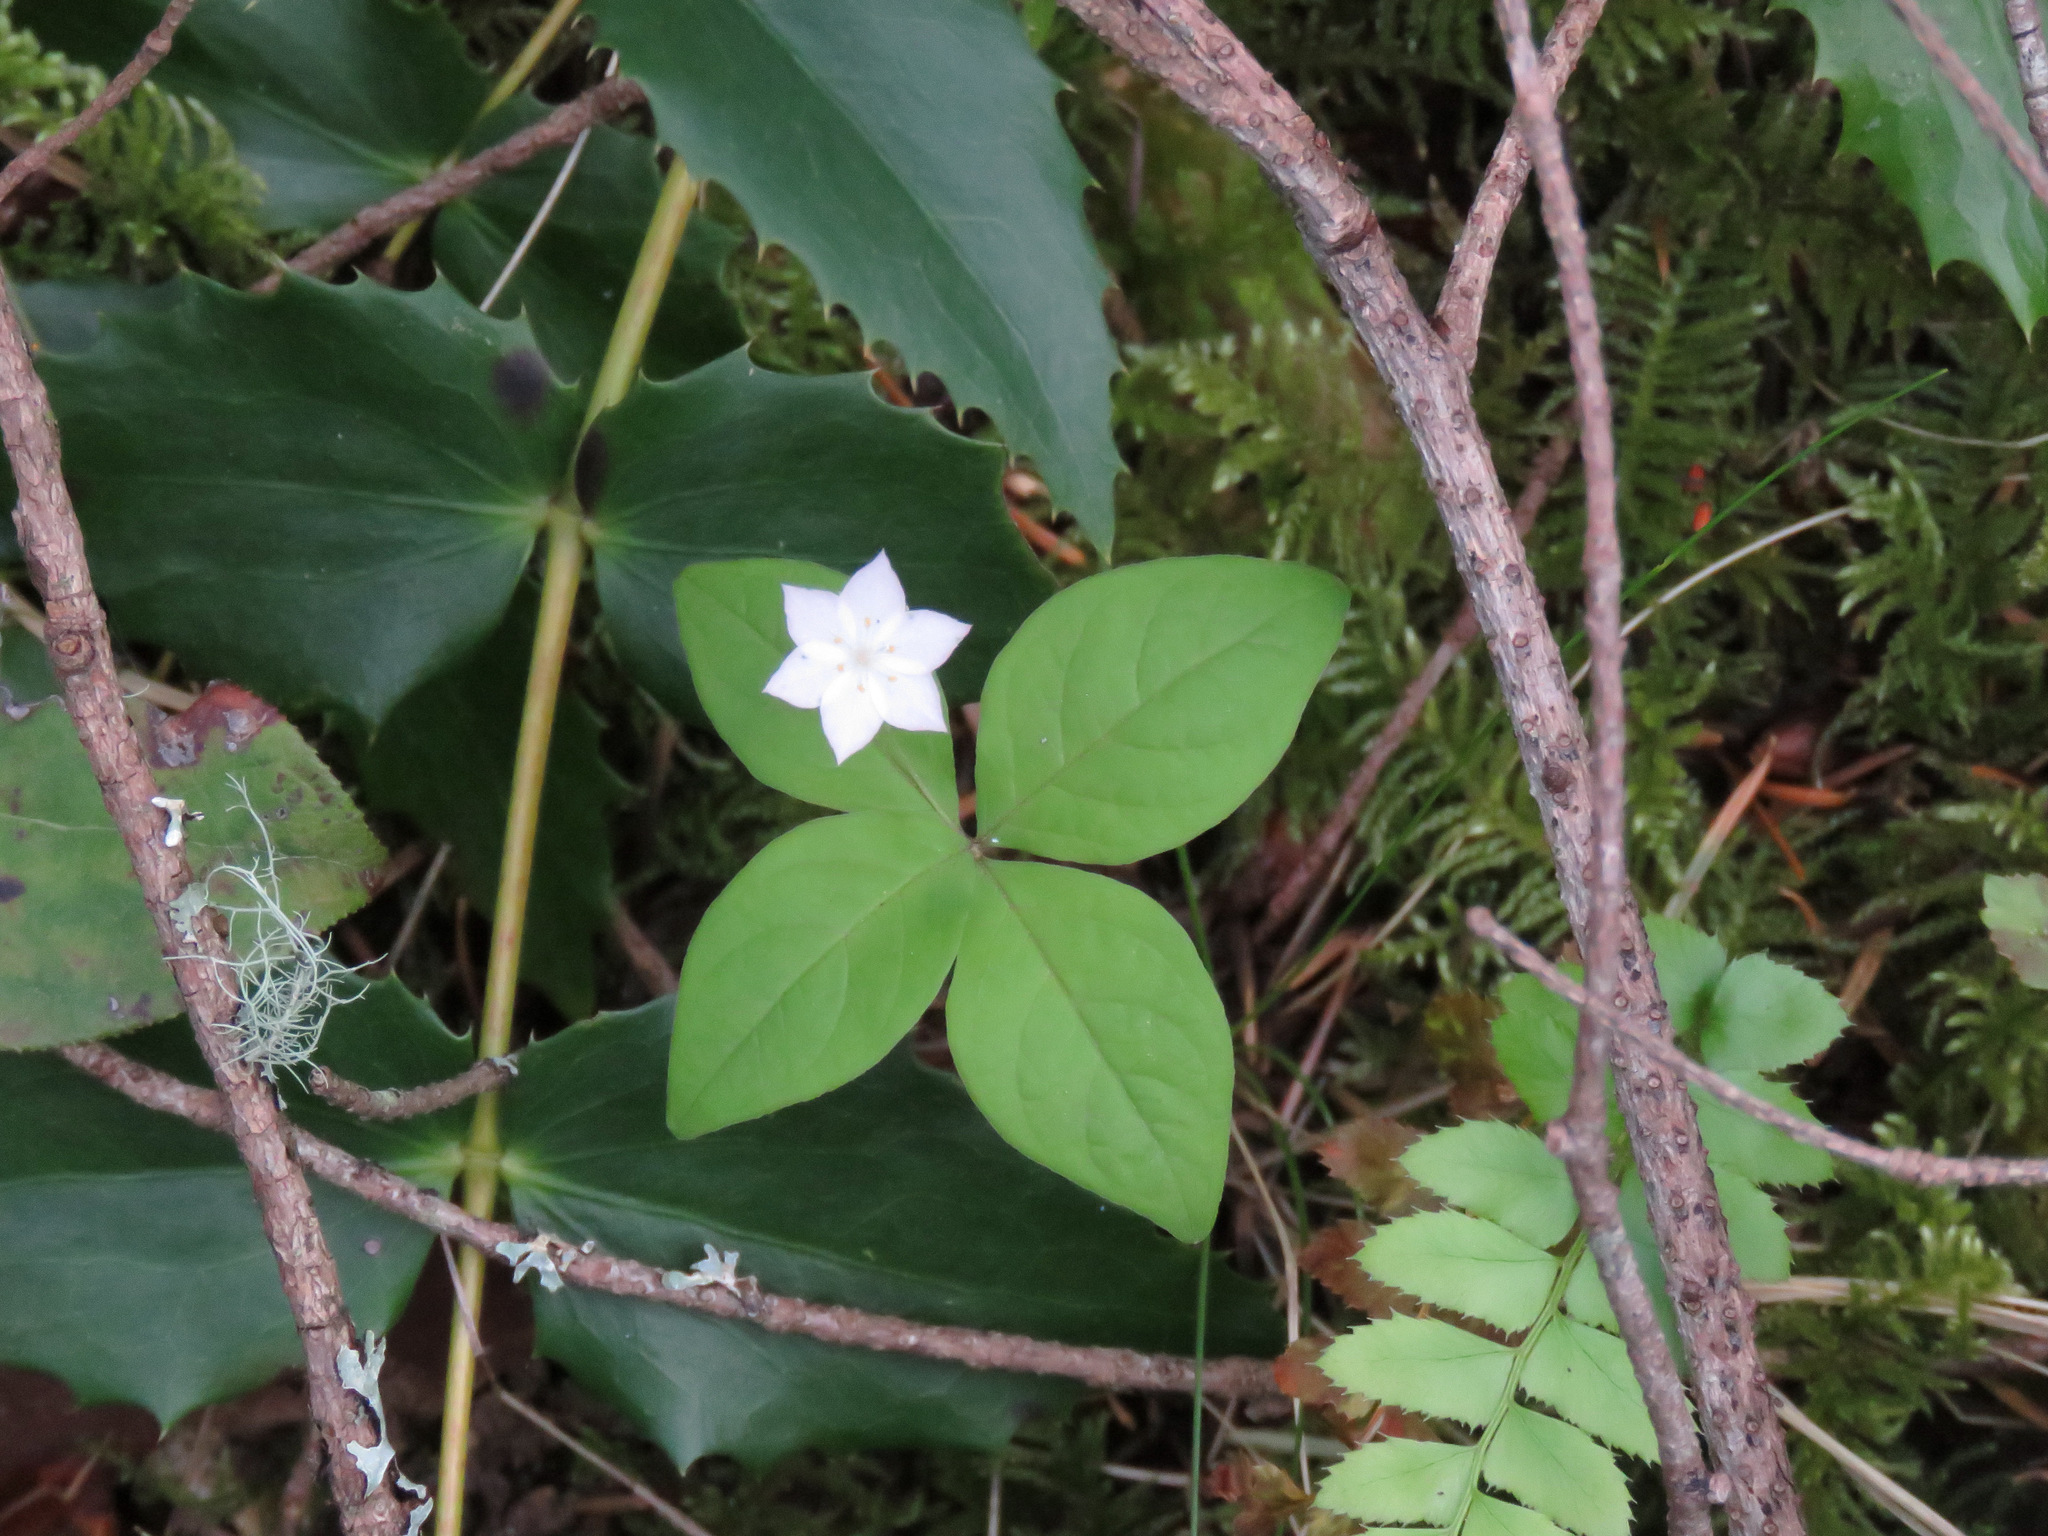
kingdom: Plantae
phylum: Tracheophyta
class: Magnoliopsida
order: Ericales
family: Primulaceae
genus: Lysimachia
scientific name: Lysimachia latifolia
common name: Pacific starflower
